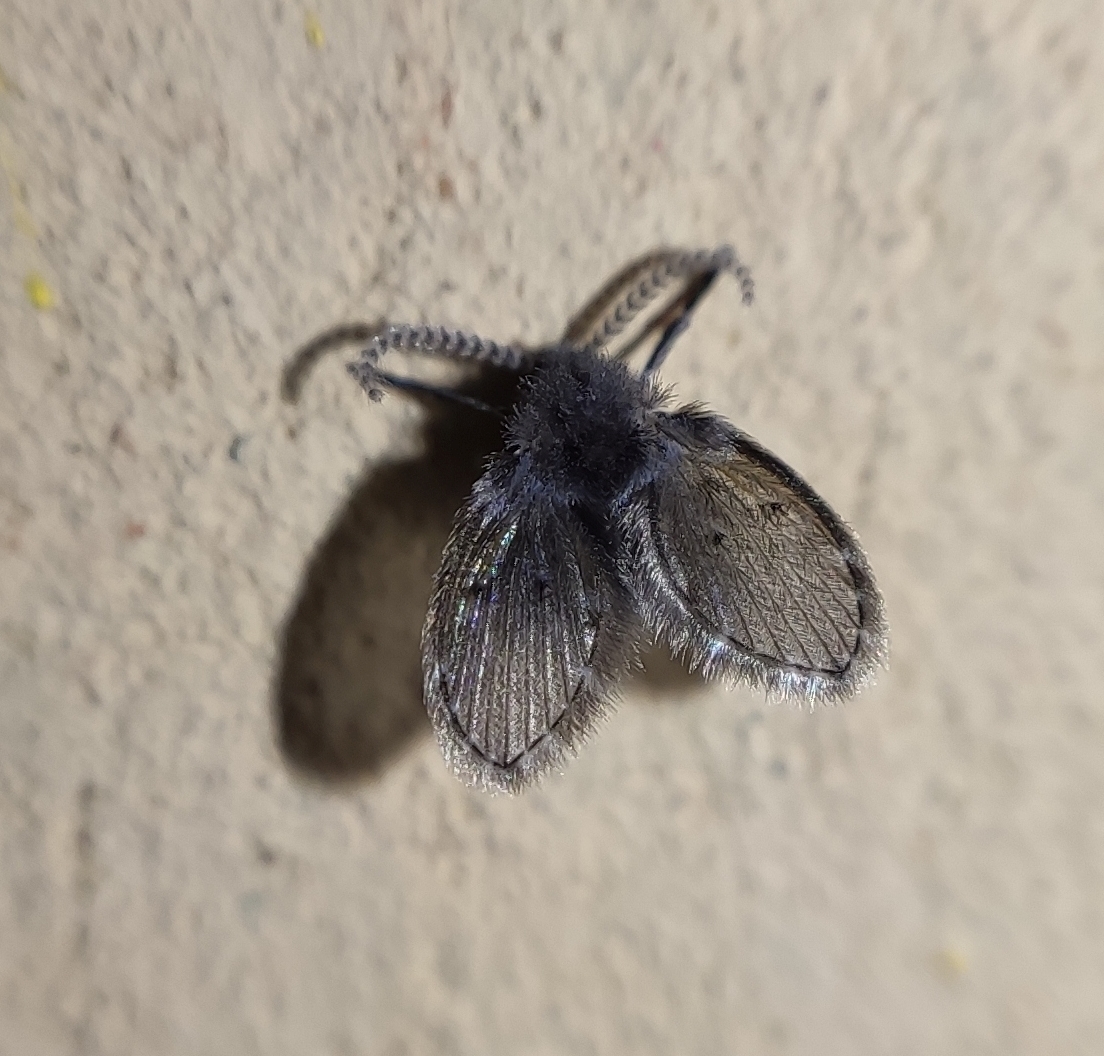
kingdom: Animalia
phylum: Arthropoda
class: Insecta
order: Diptera
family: Psychodidae
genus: Clogmia
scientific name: Clogmia albipunctatus
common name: White-spotted moth fly
